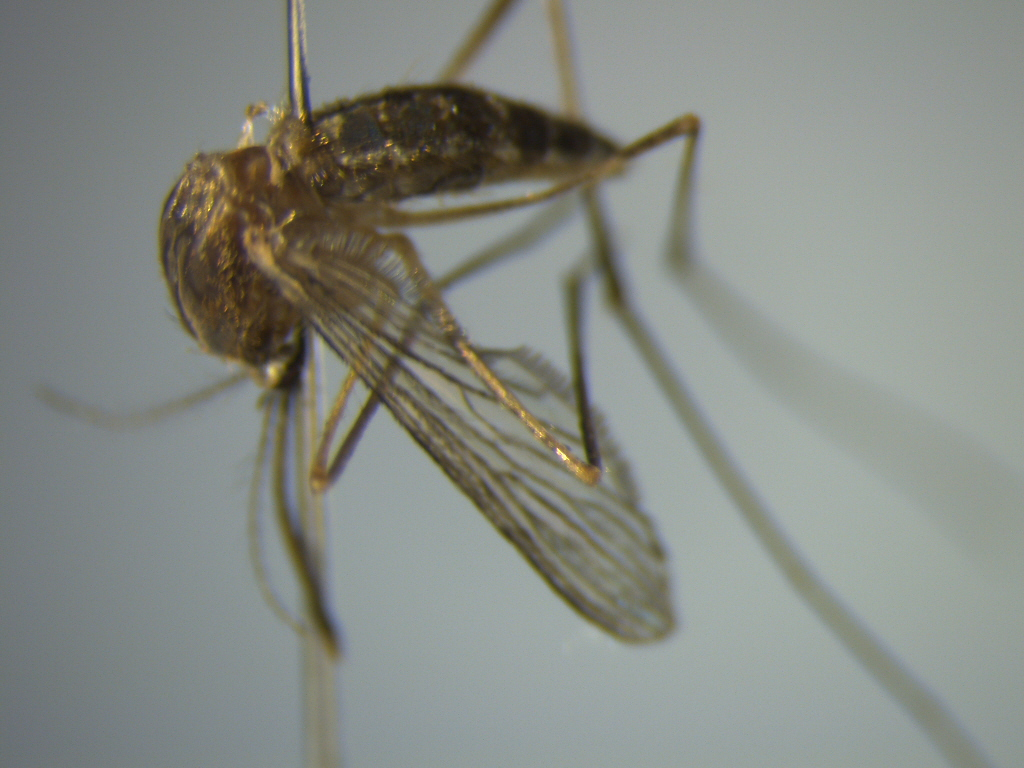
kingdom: Animalia
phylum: Arthropoda
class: Insecta
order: Diptera
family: Culicidae
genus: Culex
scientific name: Culex quinquefasciatus
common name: Southern house mosquito
